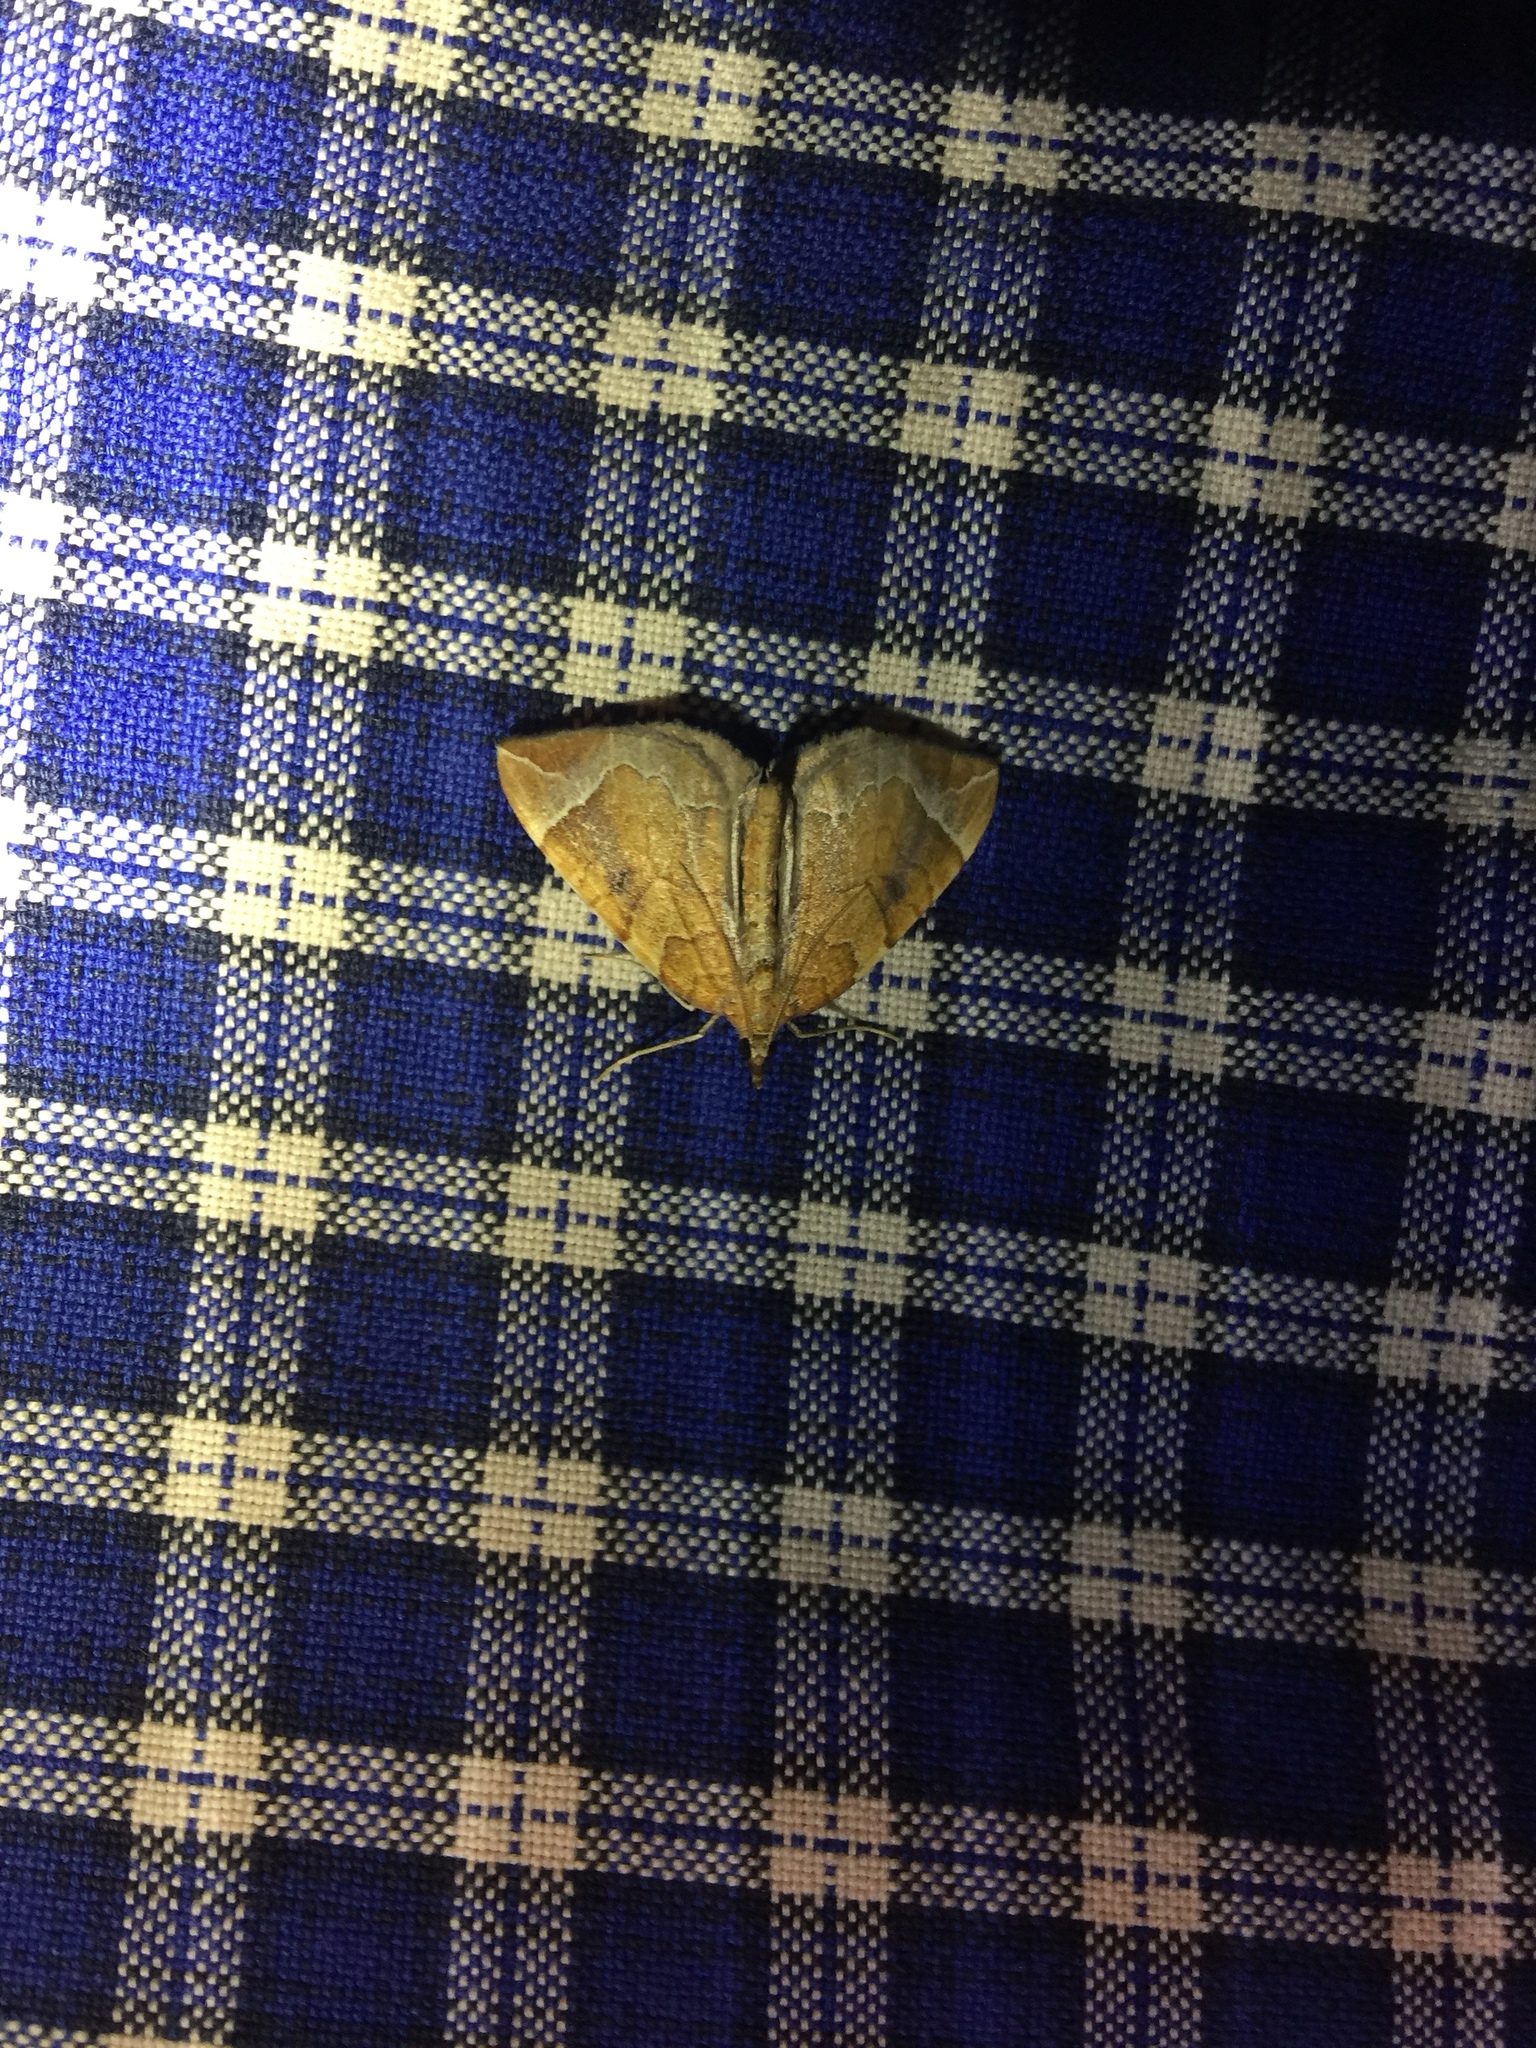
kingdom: Animalia
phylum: Arthropoda
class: Insecta
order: Lepidoptera
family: Geometridae
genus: Eulithis
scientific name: Eulithis testata
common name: Chevron
